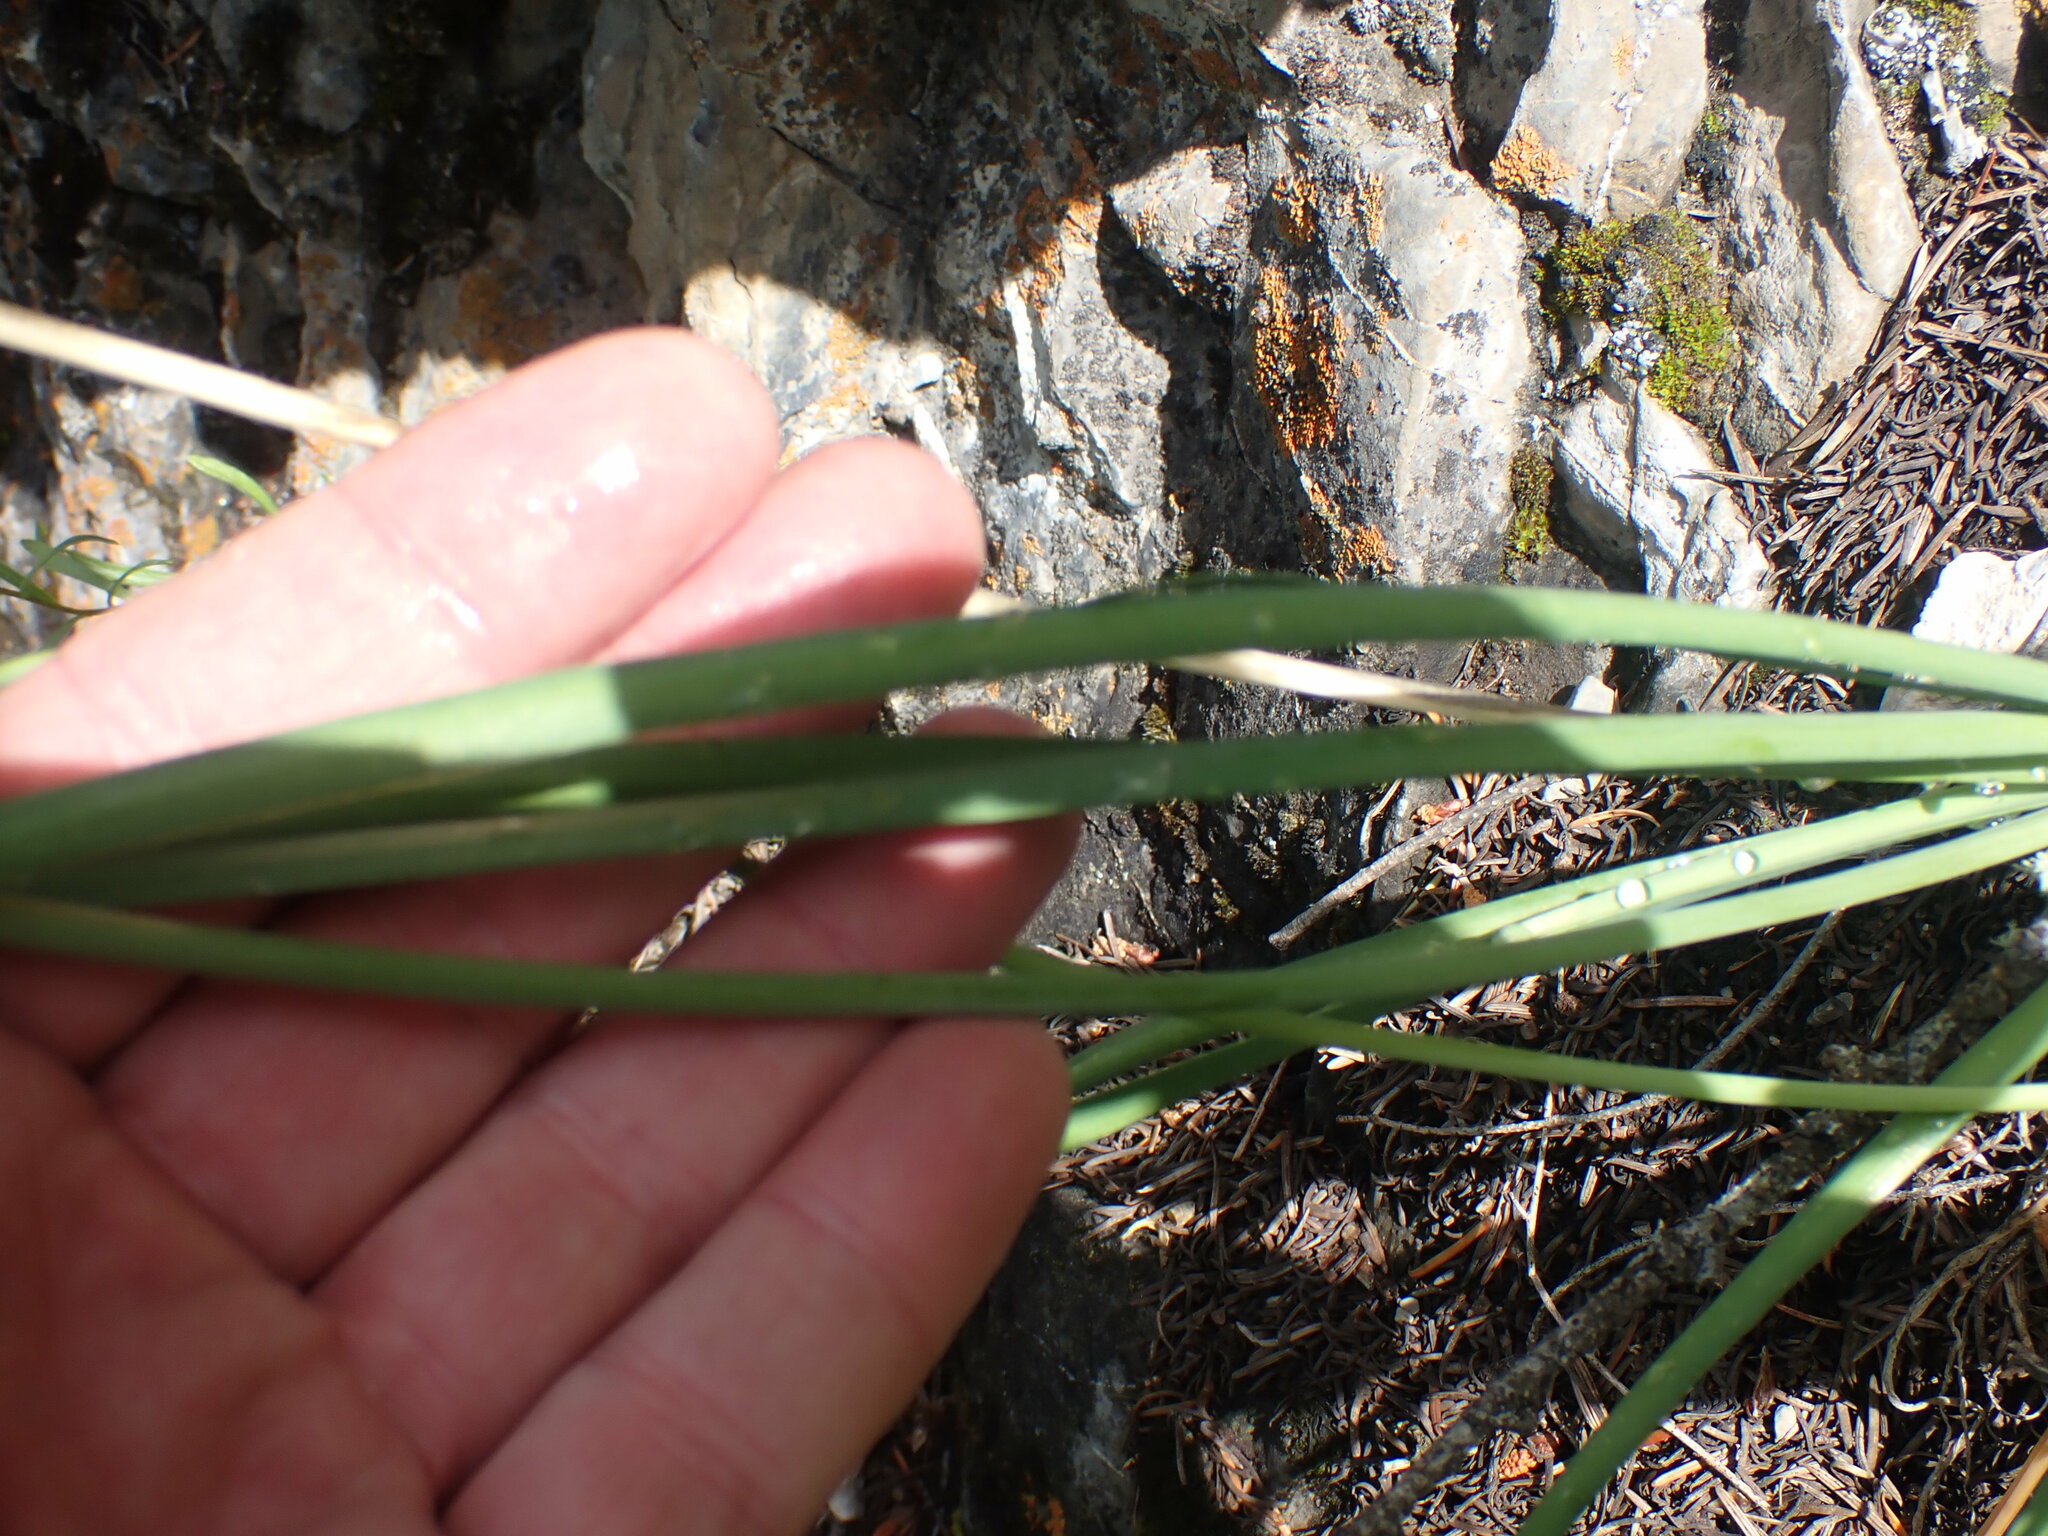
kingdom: Plantae
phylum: Tracheophyta
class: Liliopsida
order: Asparagales
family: Amaryllidaceae
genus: Allium
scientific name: Allium cernuum
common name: Nodding onion
